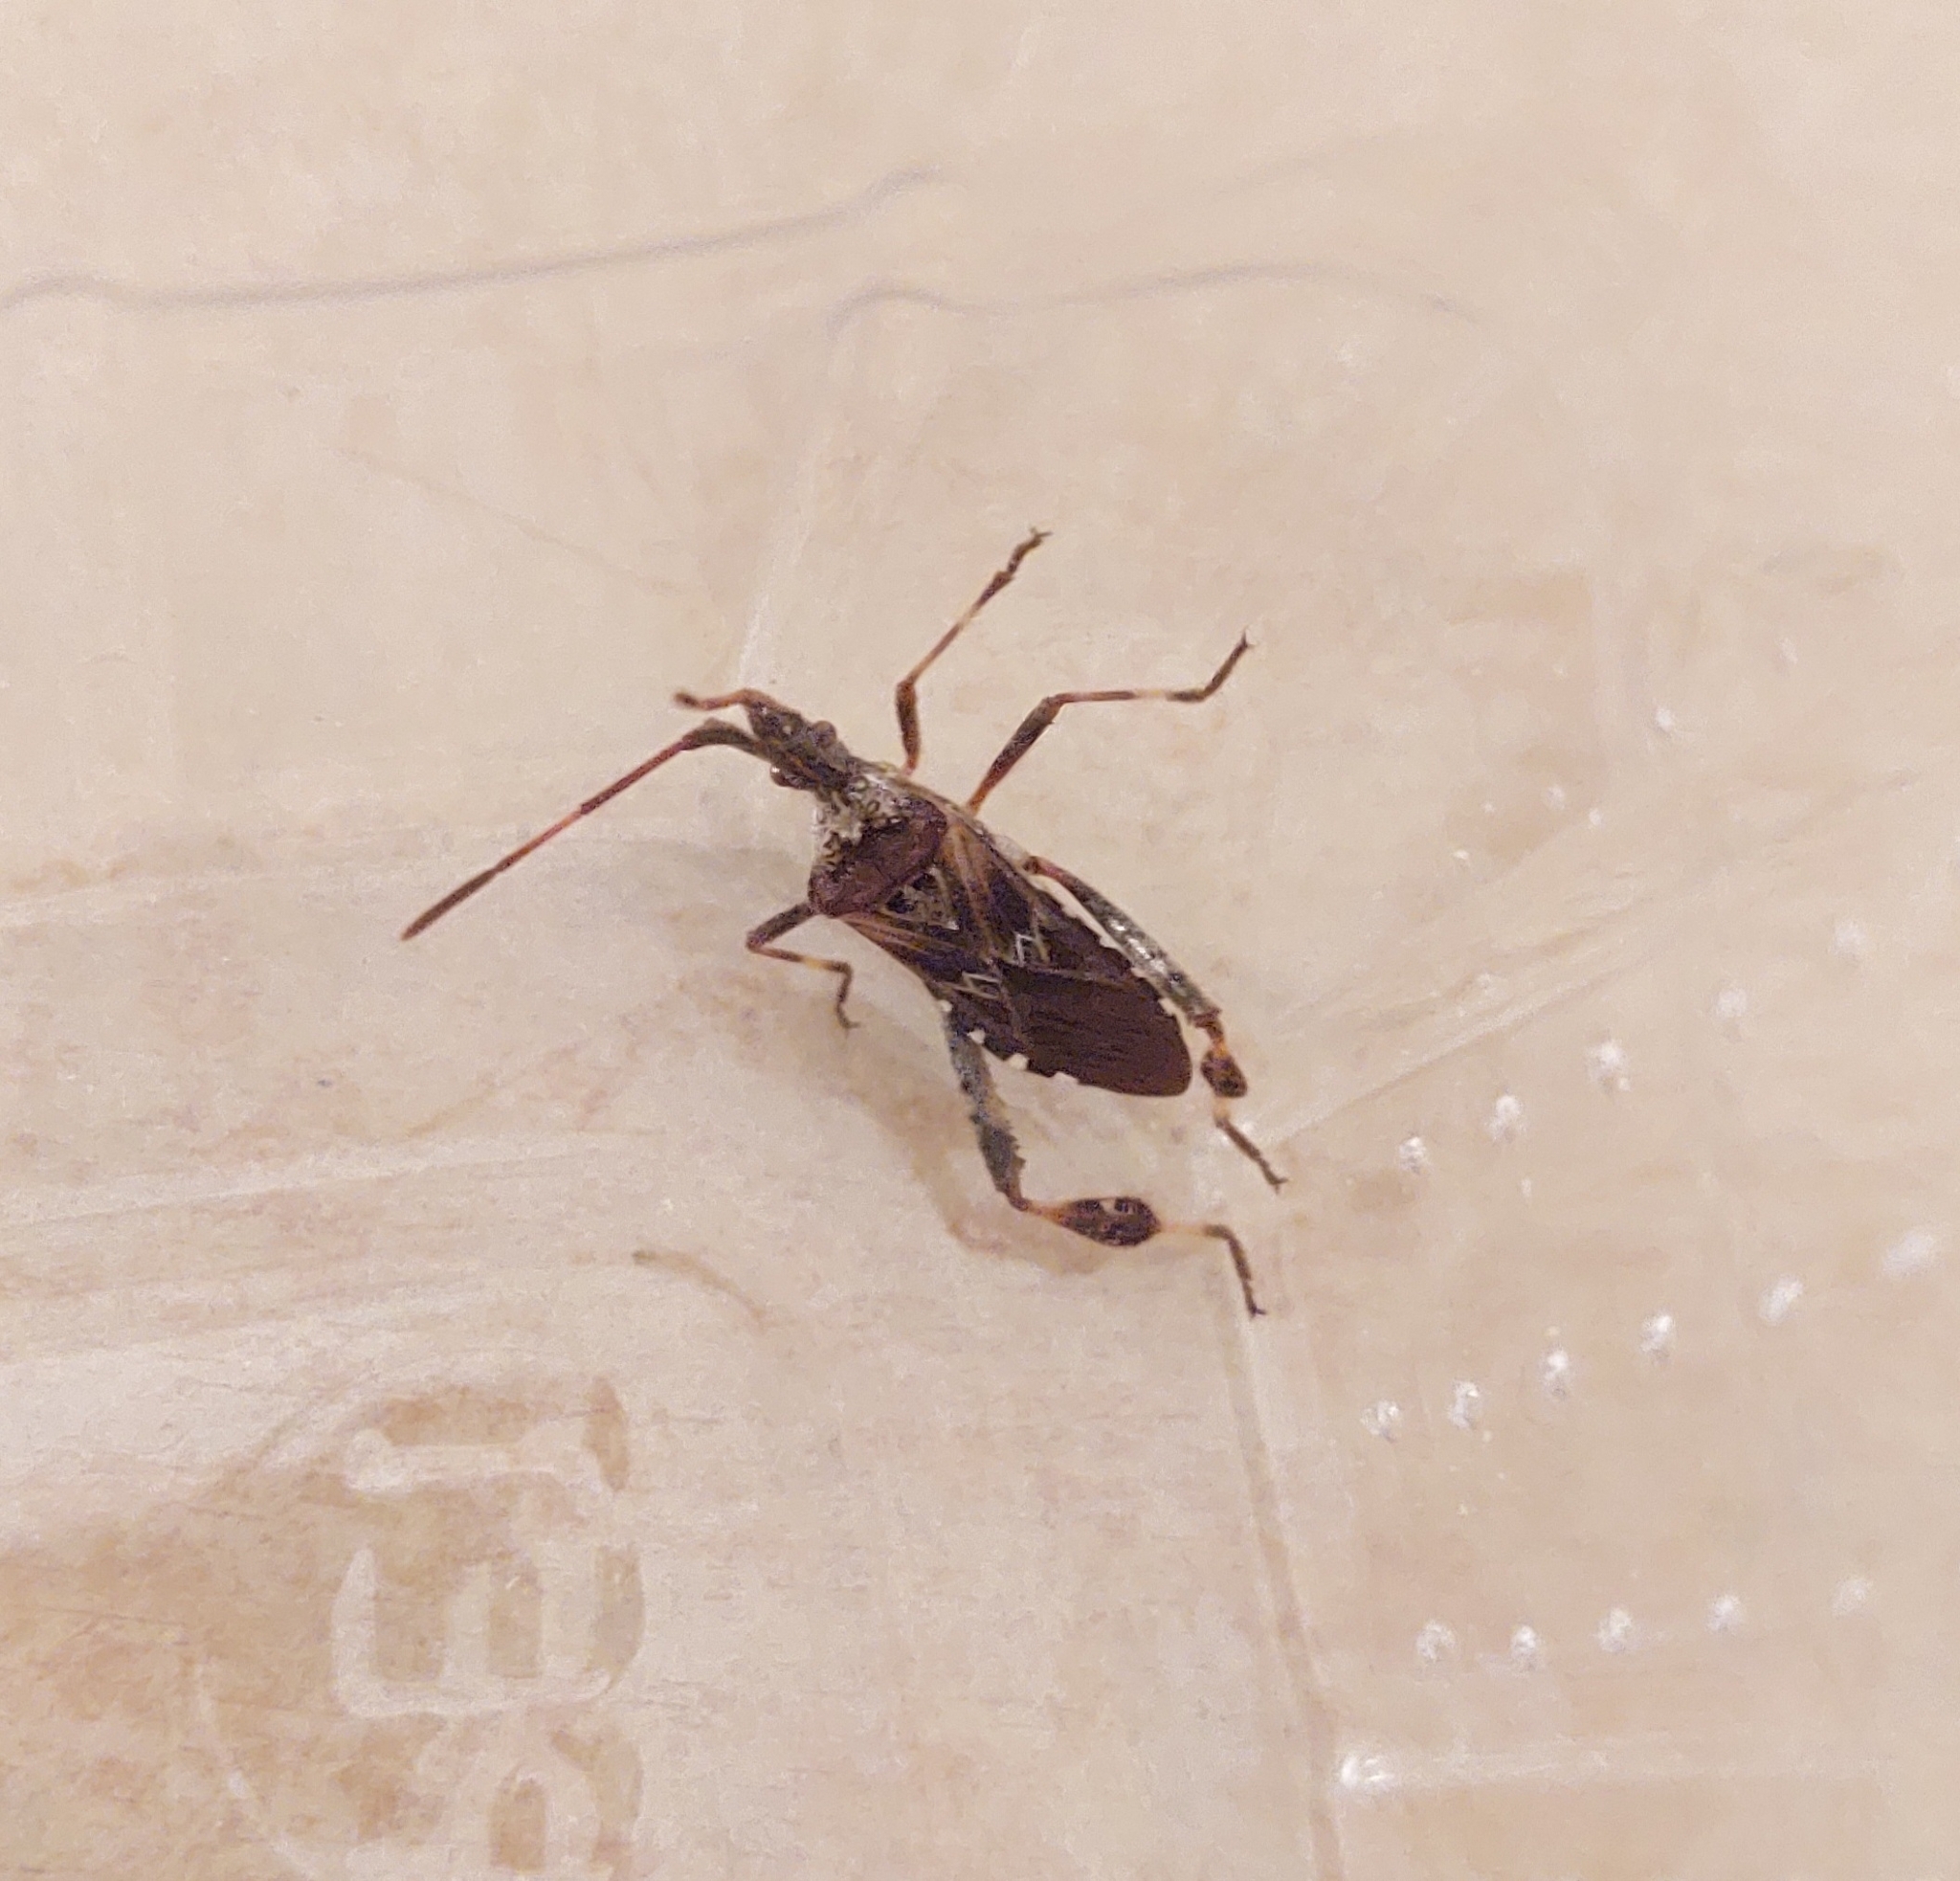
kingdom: Animalia
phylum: Arthropoda
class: Insecta
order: Hemiptera
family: Coreidae
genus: Leptoglossus
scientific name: Leptoglossus occidentalis
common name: Western conifer-seed bug
